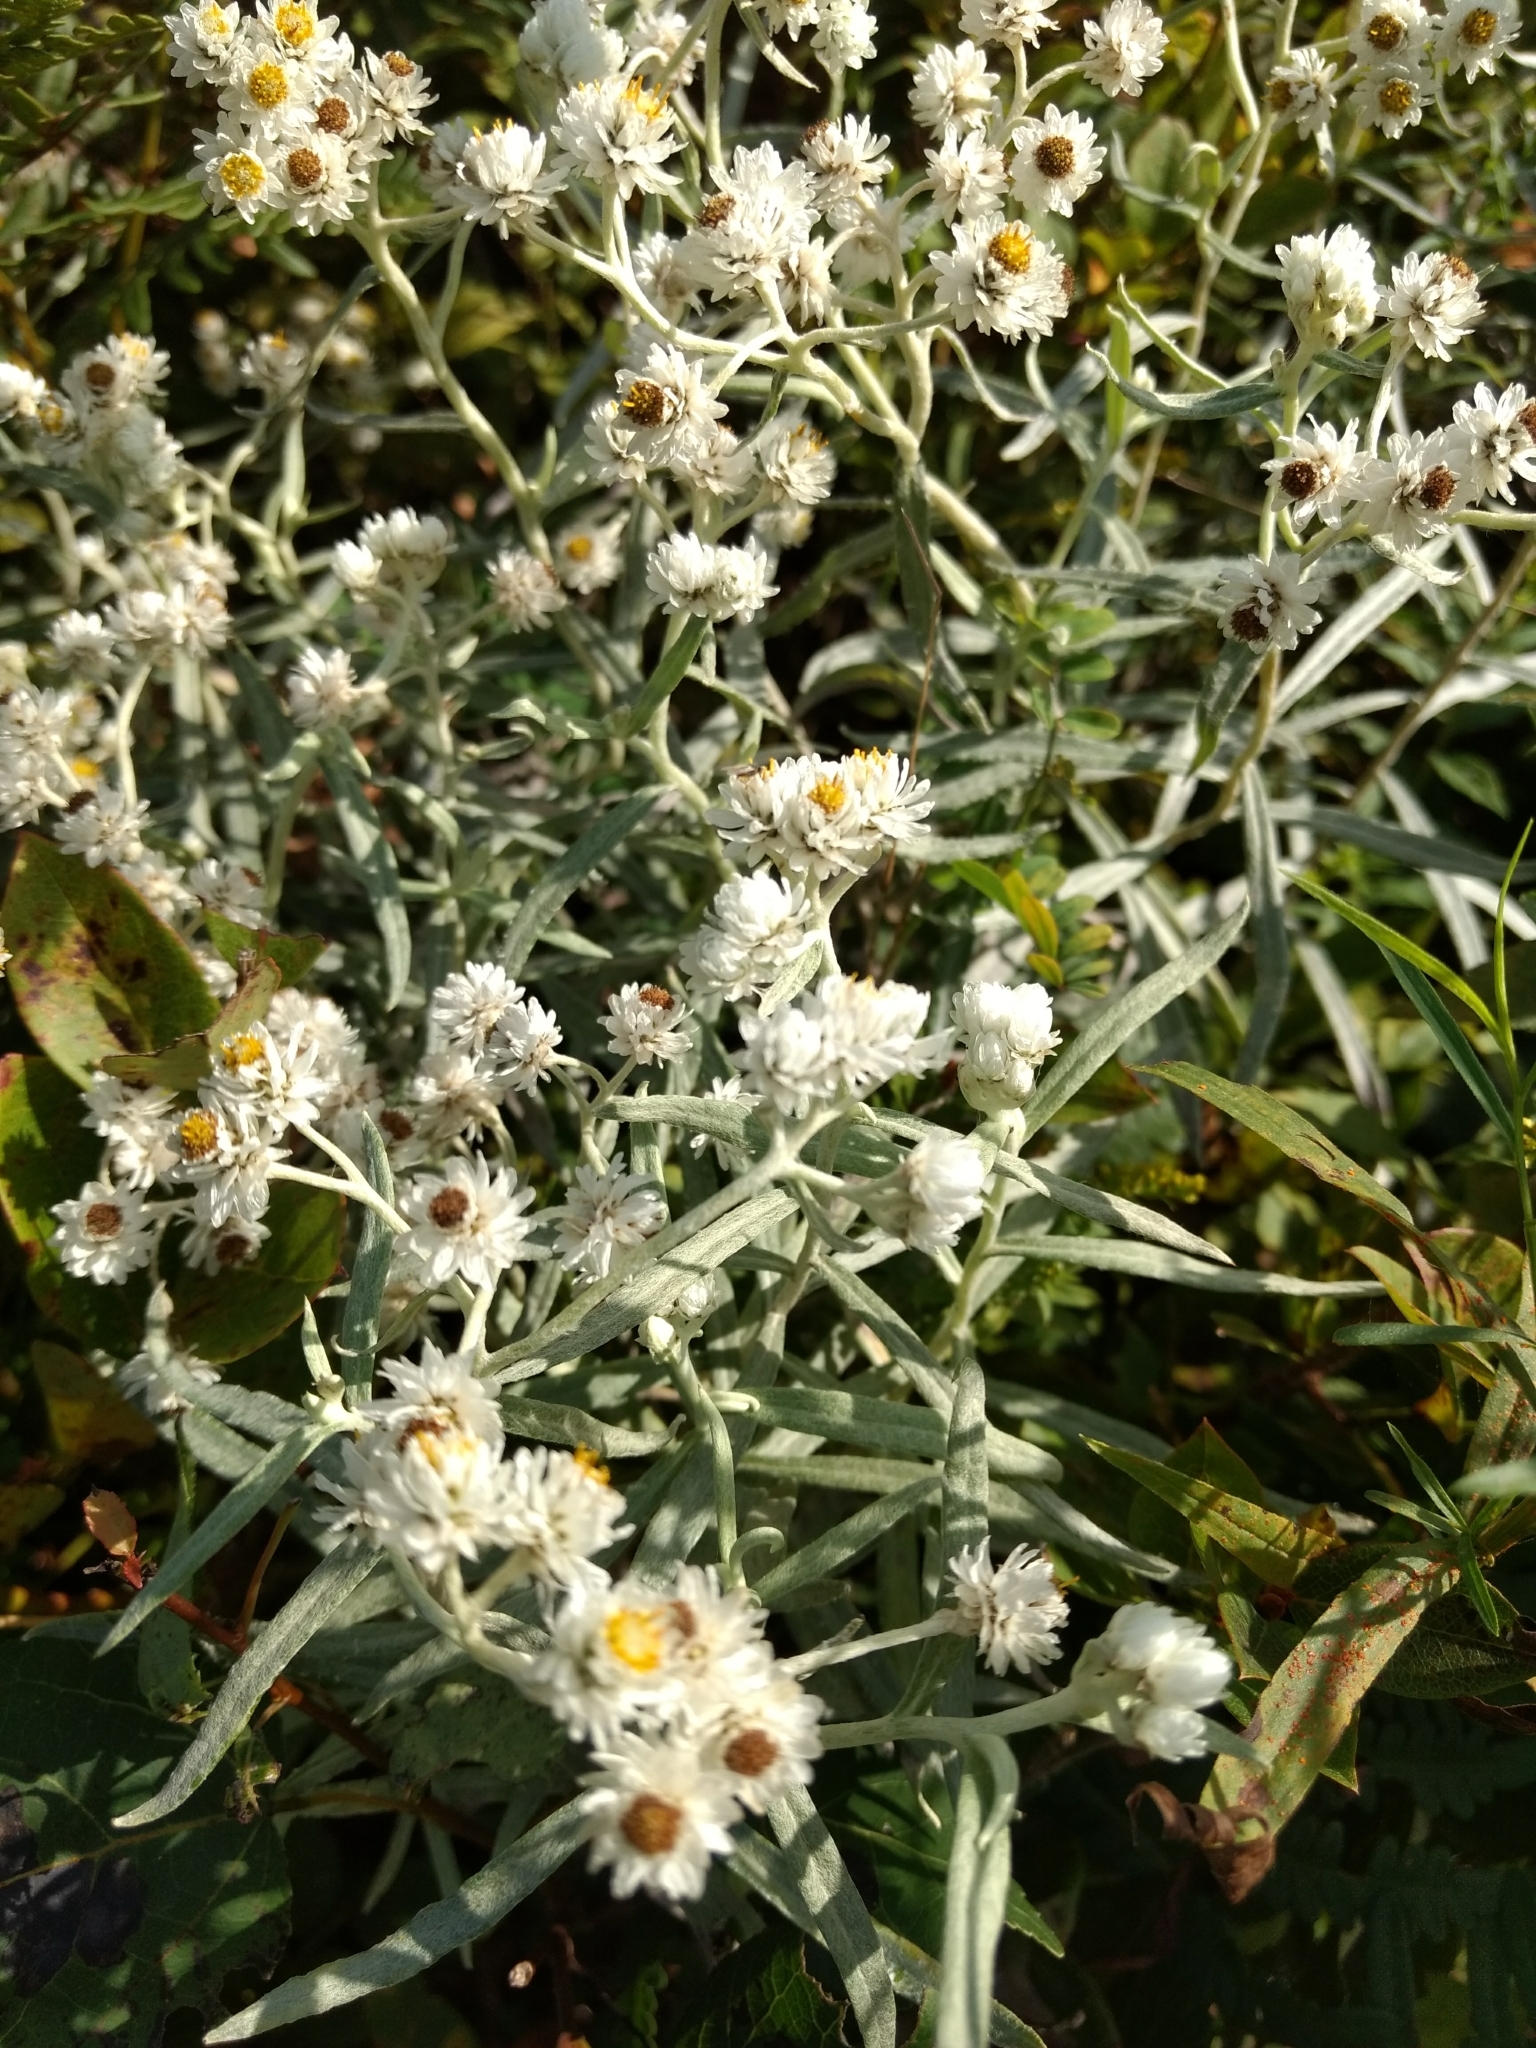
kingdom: Plantae
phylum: Tracheophyta
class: Magnoliopsida
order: Asterales
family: Asteraceae
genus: Anaphalis
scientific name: Anaphalis margaritacea
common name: Pearly everlasting
